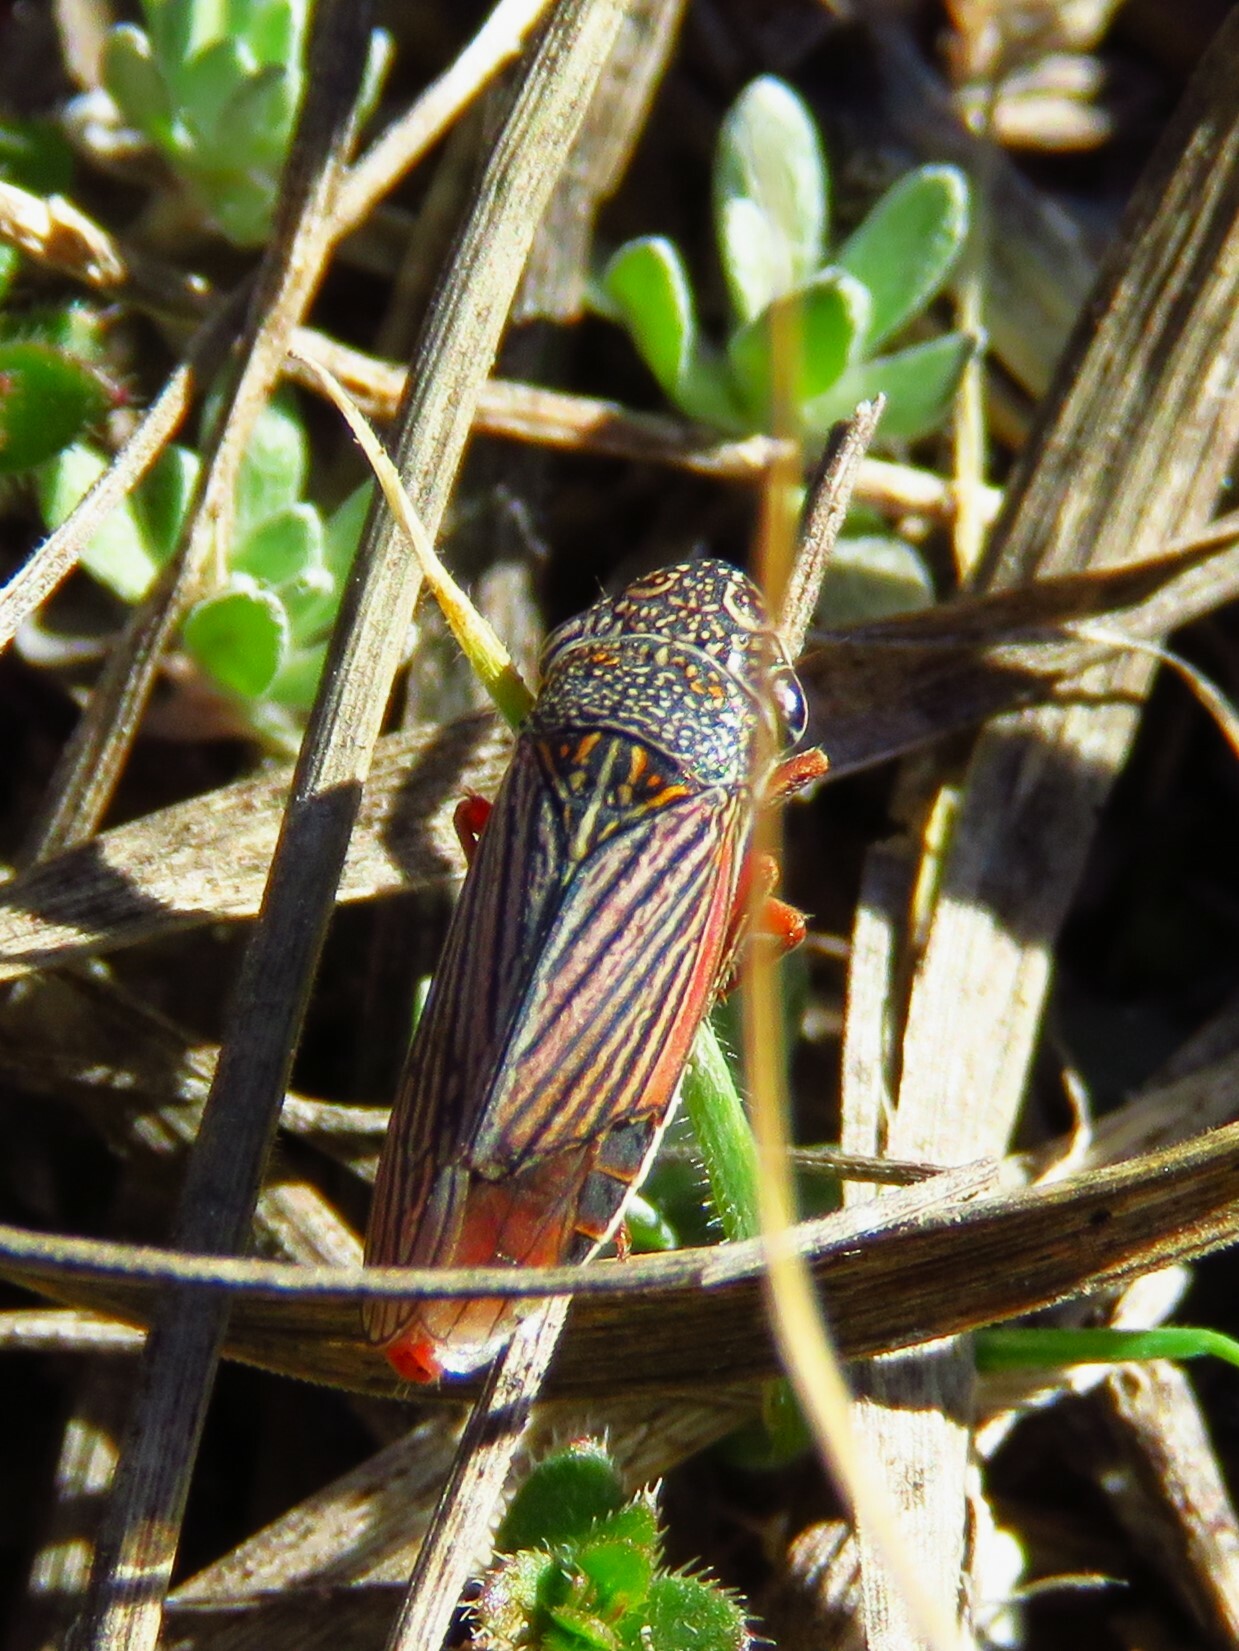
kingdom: Animalia
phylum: Arthropoda
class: Insecta
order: Hemiptera
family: Cicadellidae
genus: Cuerna
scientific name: Cuerna costalis
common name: Lateral-lined sharpshooter
